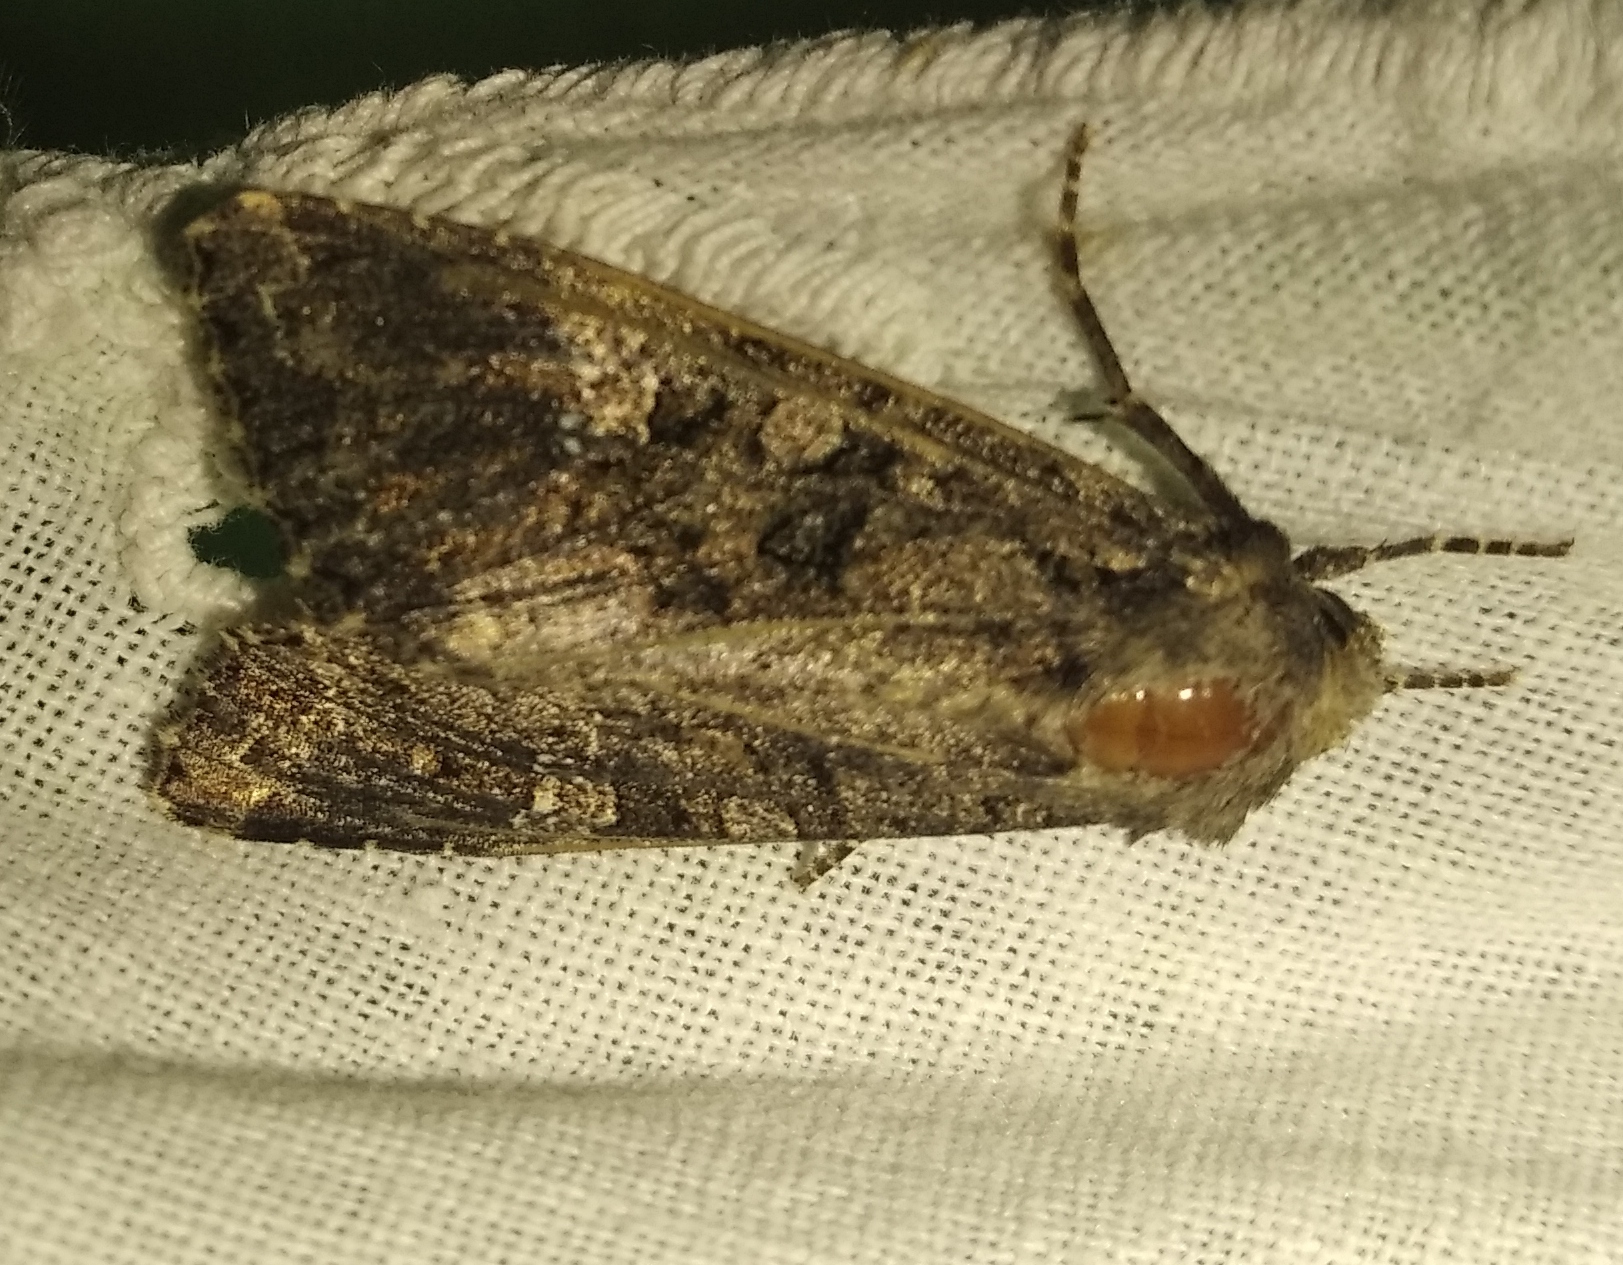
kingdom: Animalia
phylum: Arthropoda
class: Insecta
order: Lepidoptera
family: Noctuidae
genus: Mamestra
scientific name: Mamestra brassicae
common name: Cabbage moth
